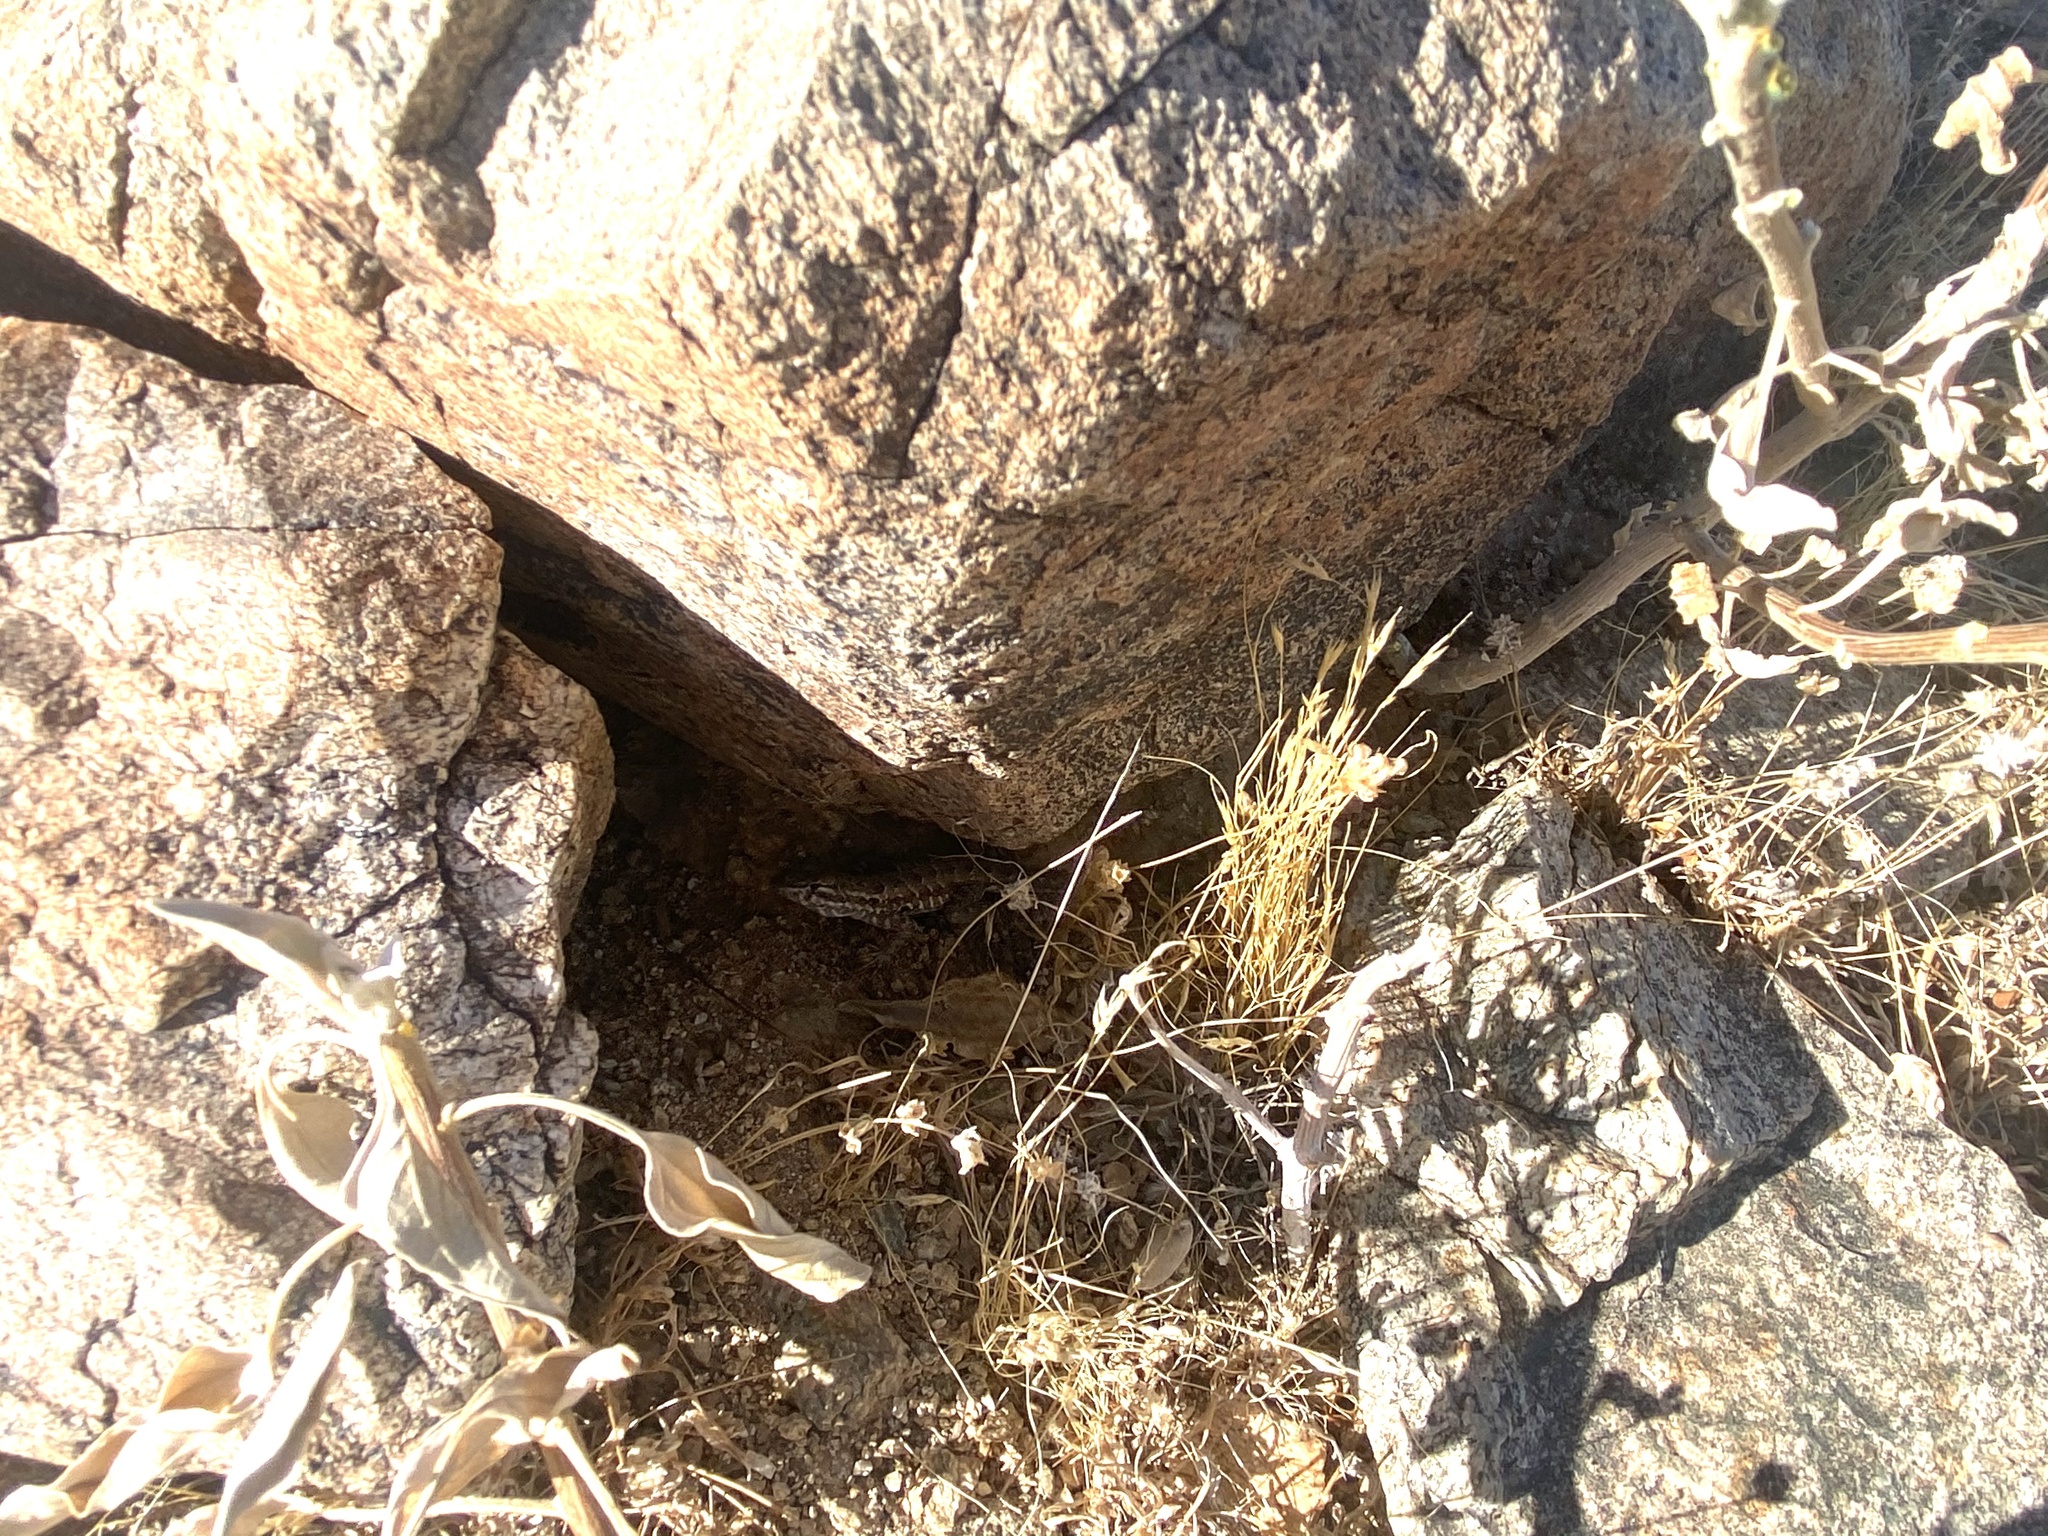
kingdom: Animalia
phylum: Chordata
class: Squamata
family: Phrynosomatidae
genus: Uta
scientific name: Uta stansburiana
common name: Side-blotched lizard
